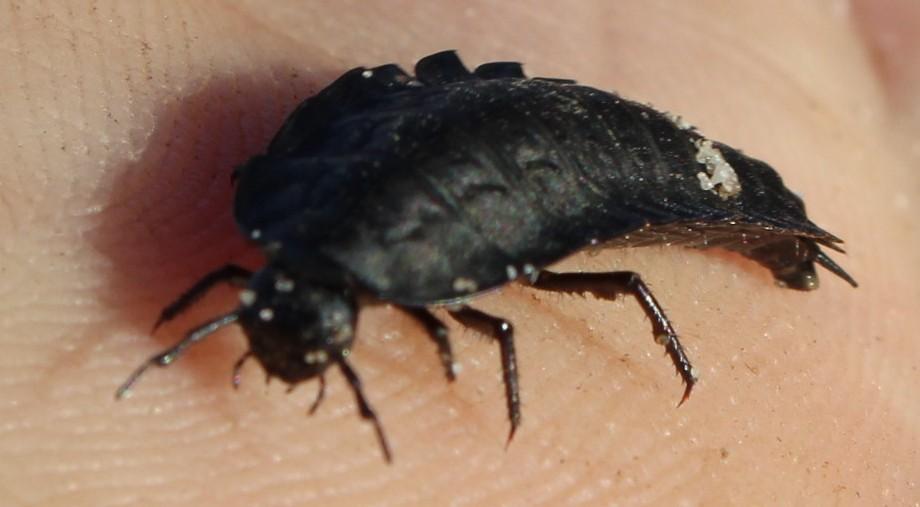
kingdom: Animalia
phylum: Arthropoda
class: Insecta
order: Coleoptera
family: Staphylinidae
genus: Silpha
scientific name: Silpha capicola
